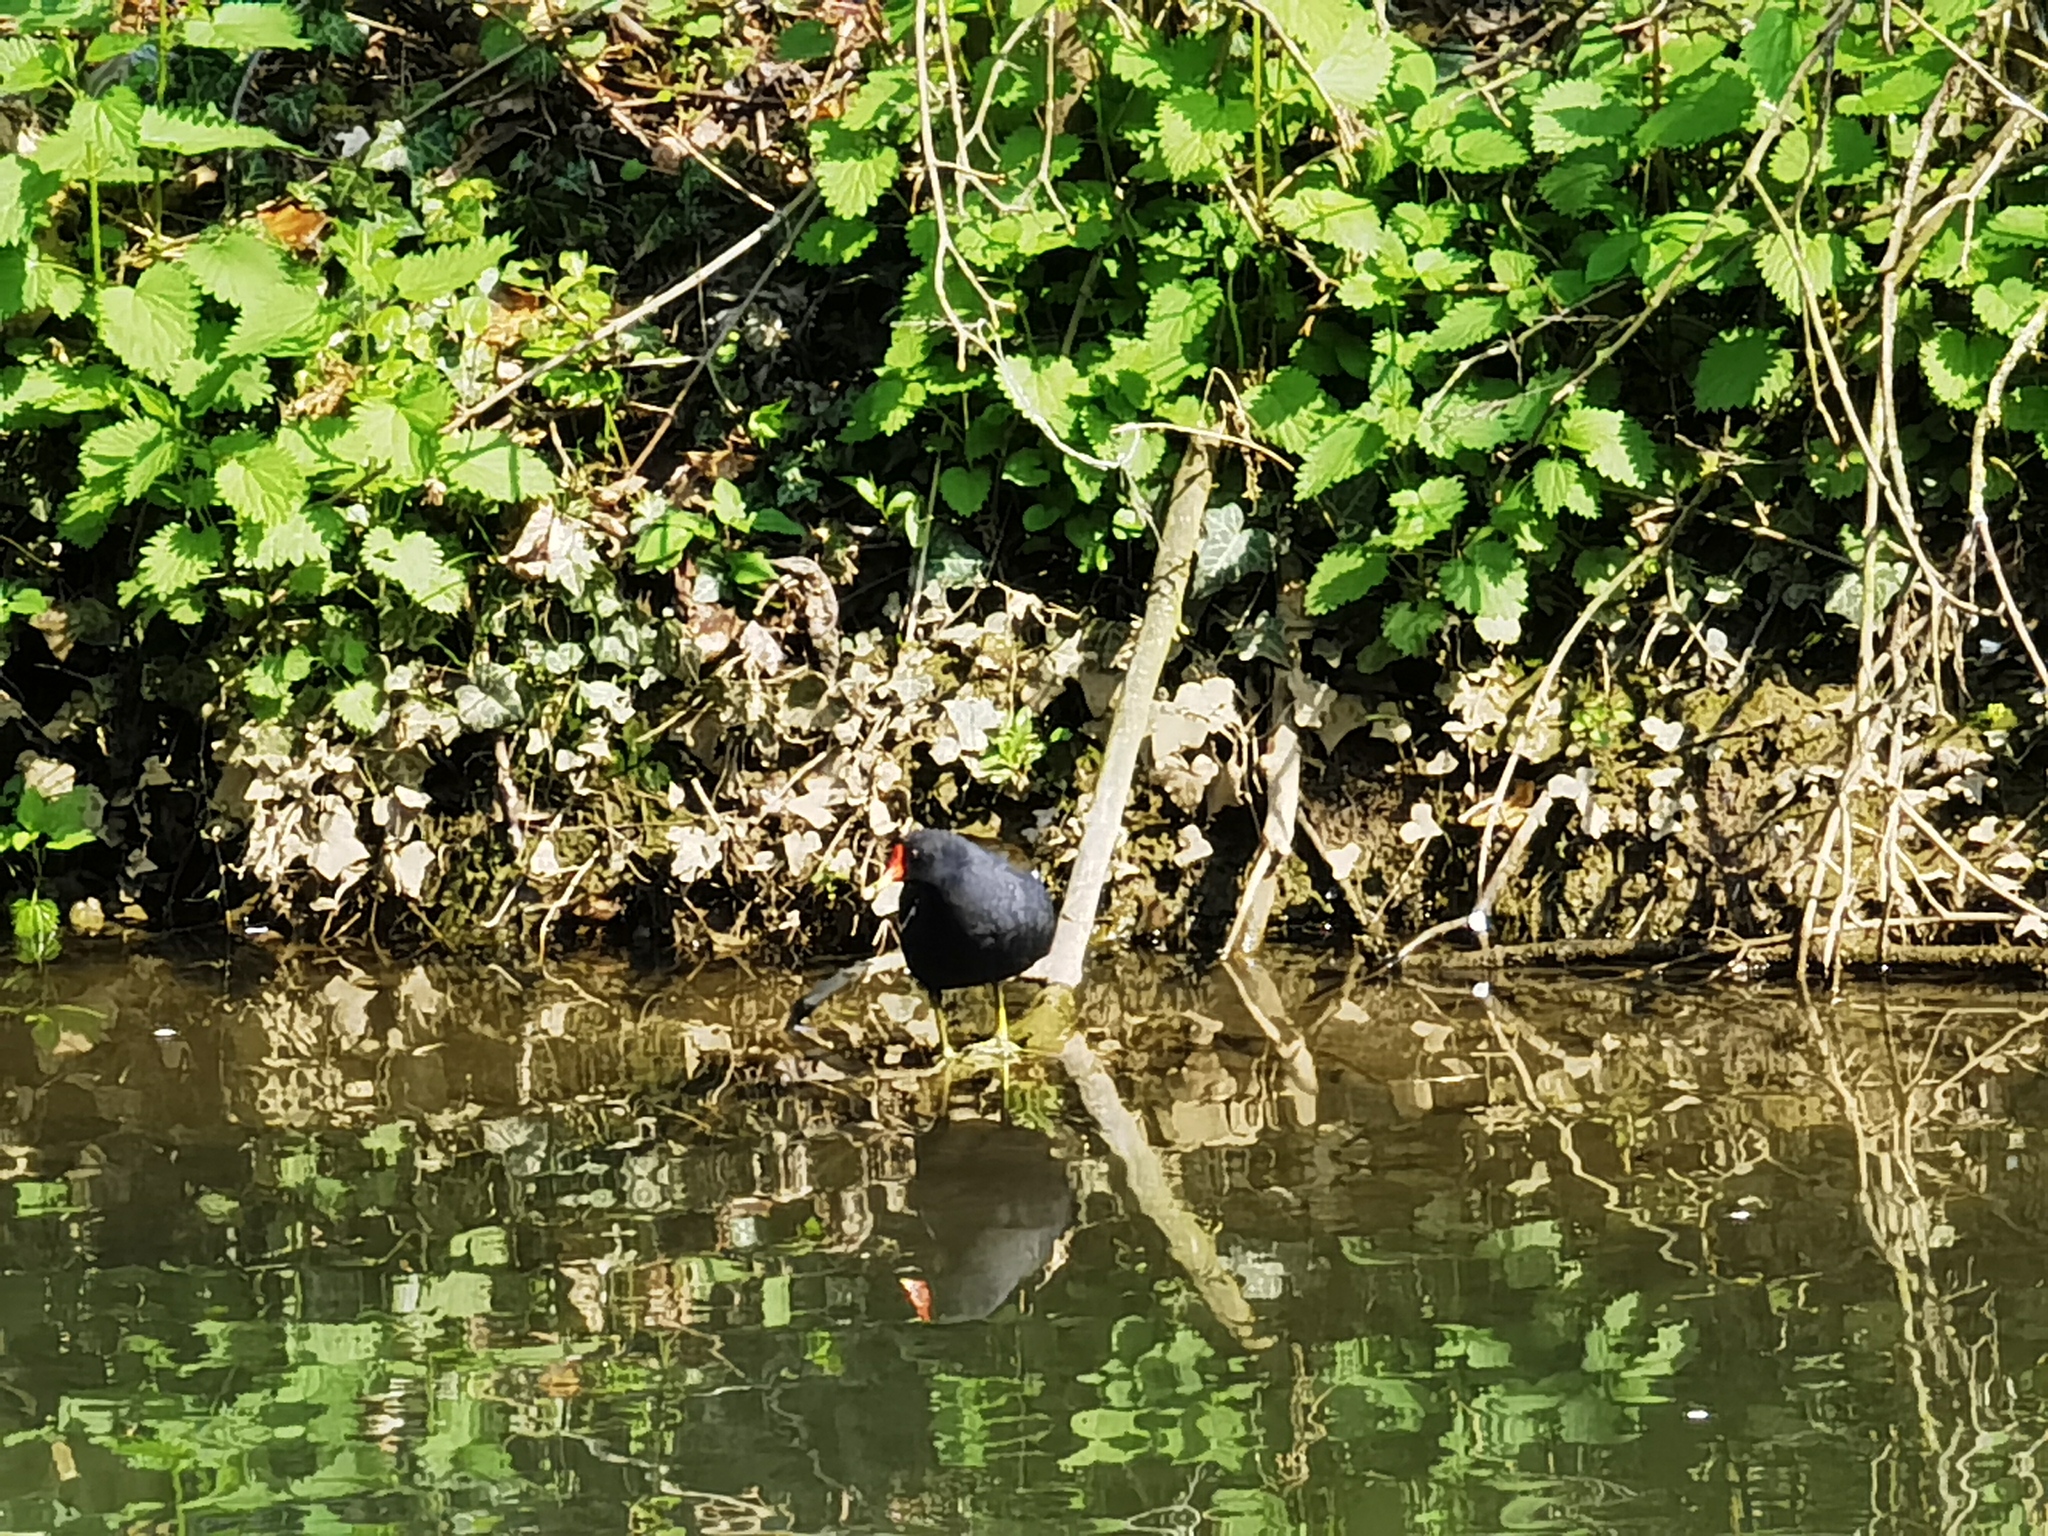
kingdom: Animalia
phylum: Chordata
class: Aves
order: Gruiformes
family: Rallidae
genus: Gallinula
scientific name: Gallinula chloropus
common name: Common moorhen
